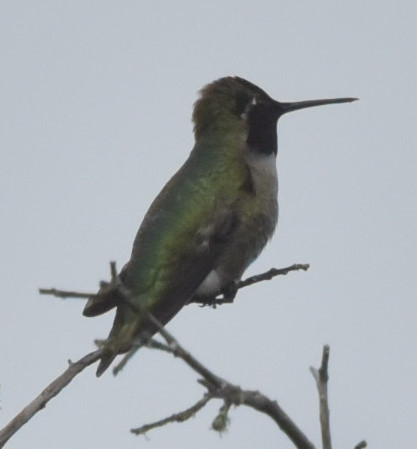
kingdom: Animalia
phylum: Chordata
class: Aves
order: Apodiformes
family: Trochilidae
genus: Calypte
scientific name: Calypte anna
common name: Anna's hummingbird
